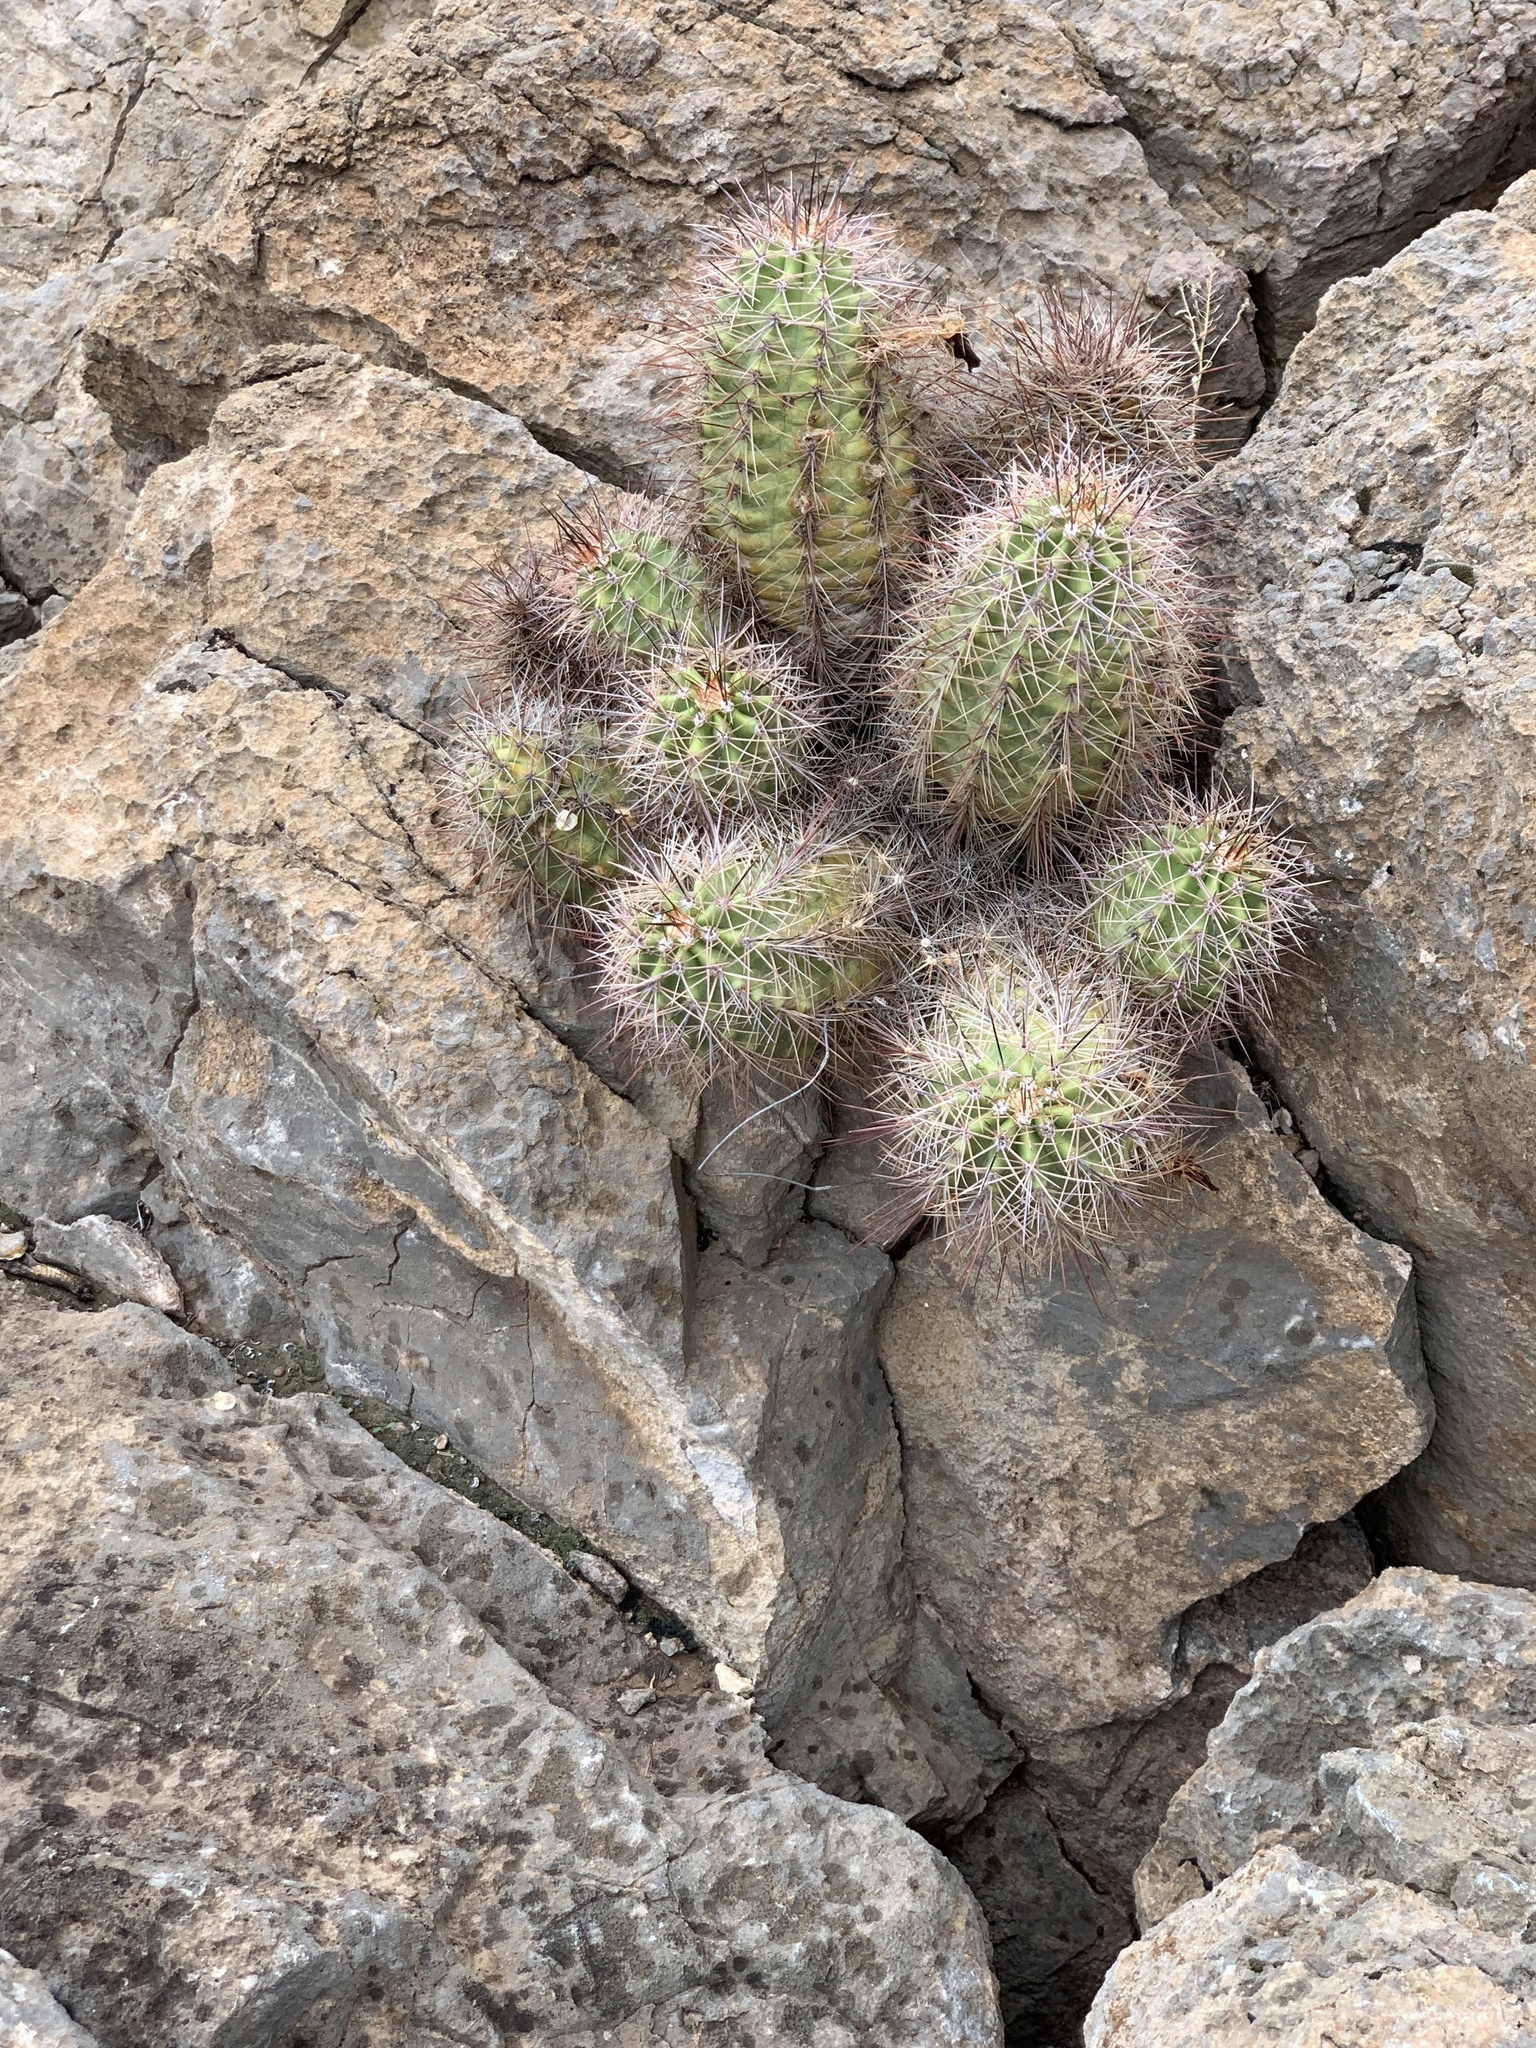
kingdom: Plantae
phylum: Tracheophyta
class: Magnoliopsida
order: Caryophyllales
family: Cactaceae
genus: Echinocereus
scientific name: Echinocereus coccineus
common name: Scarlet hedgehog cactus
